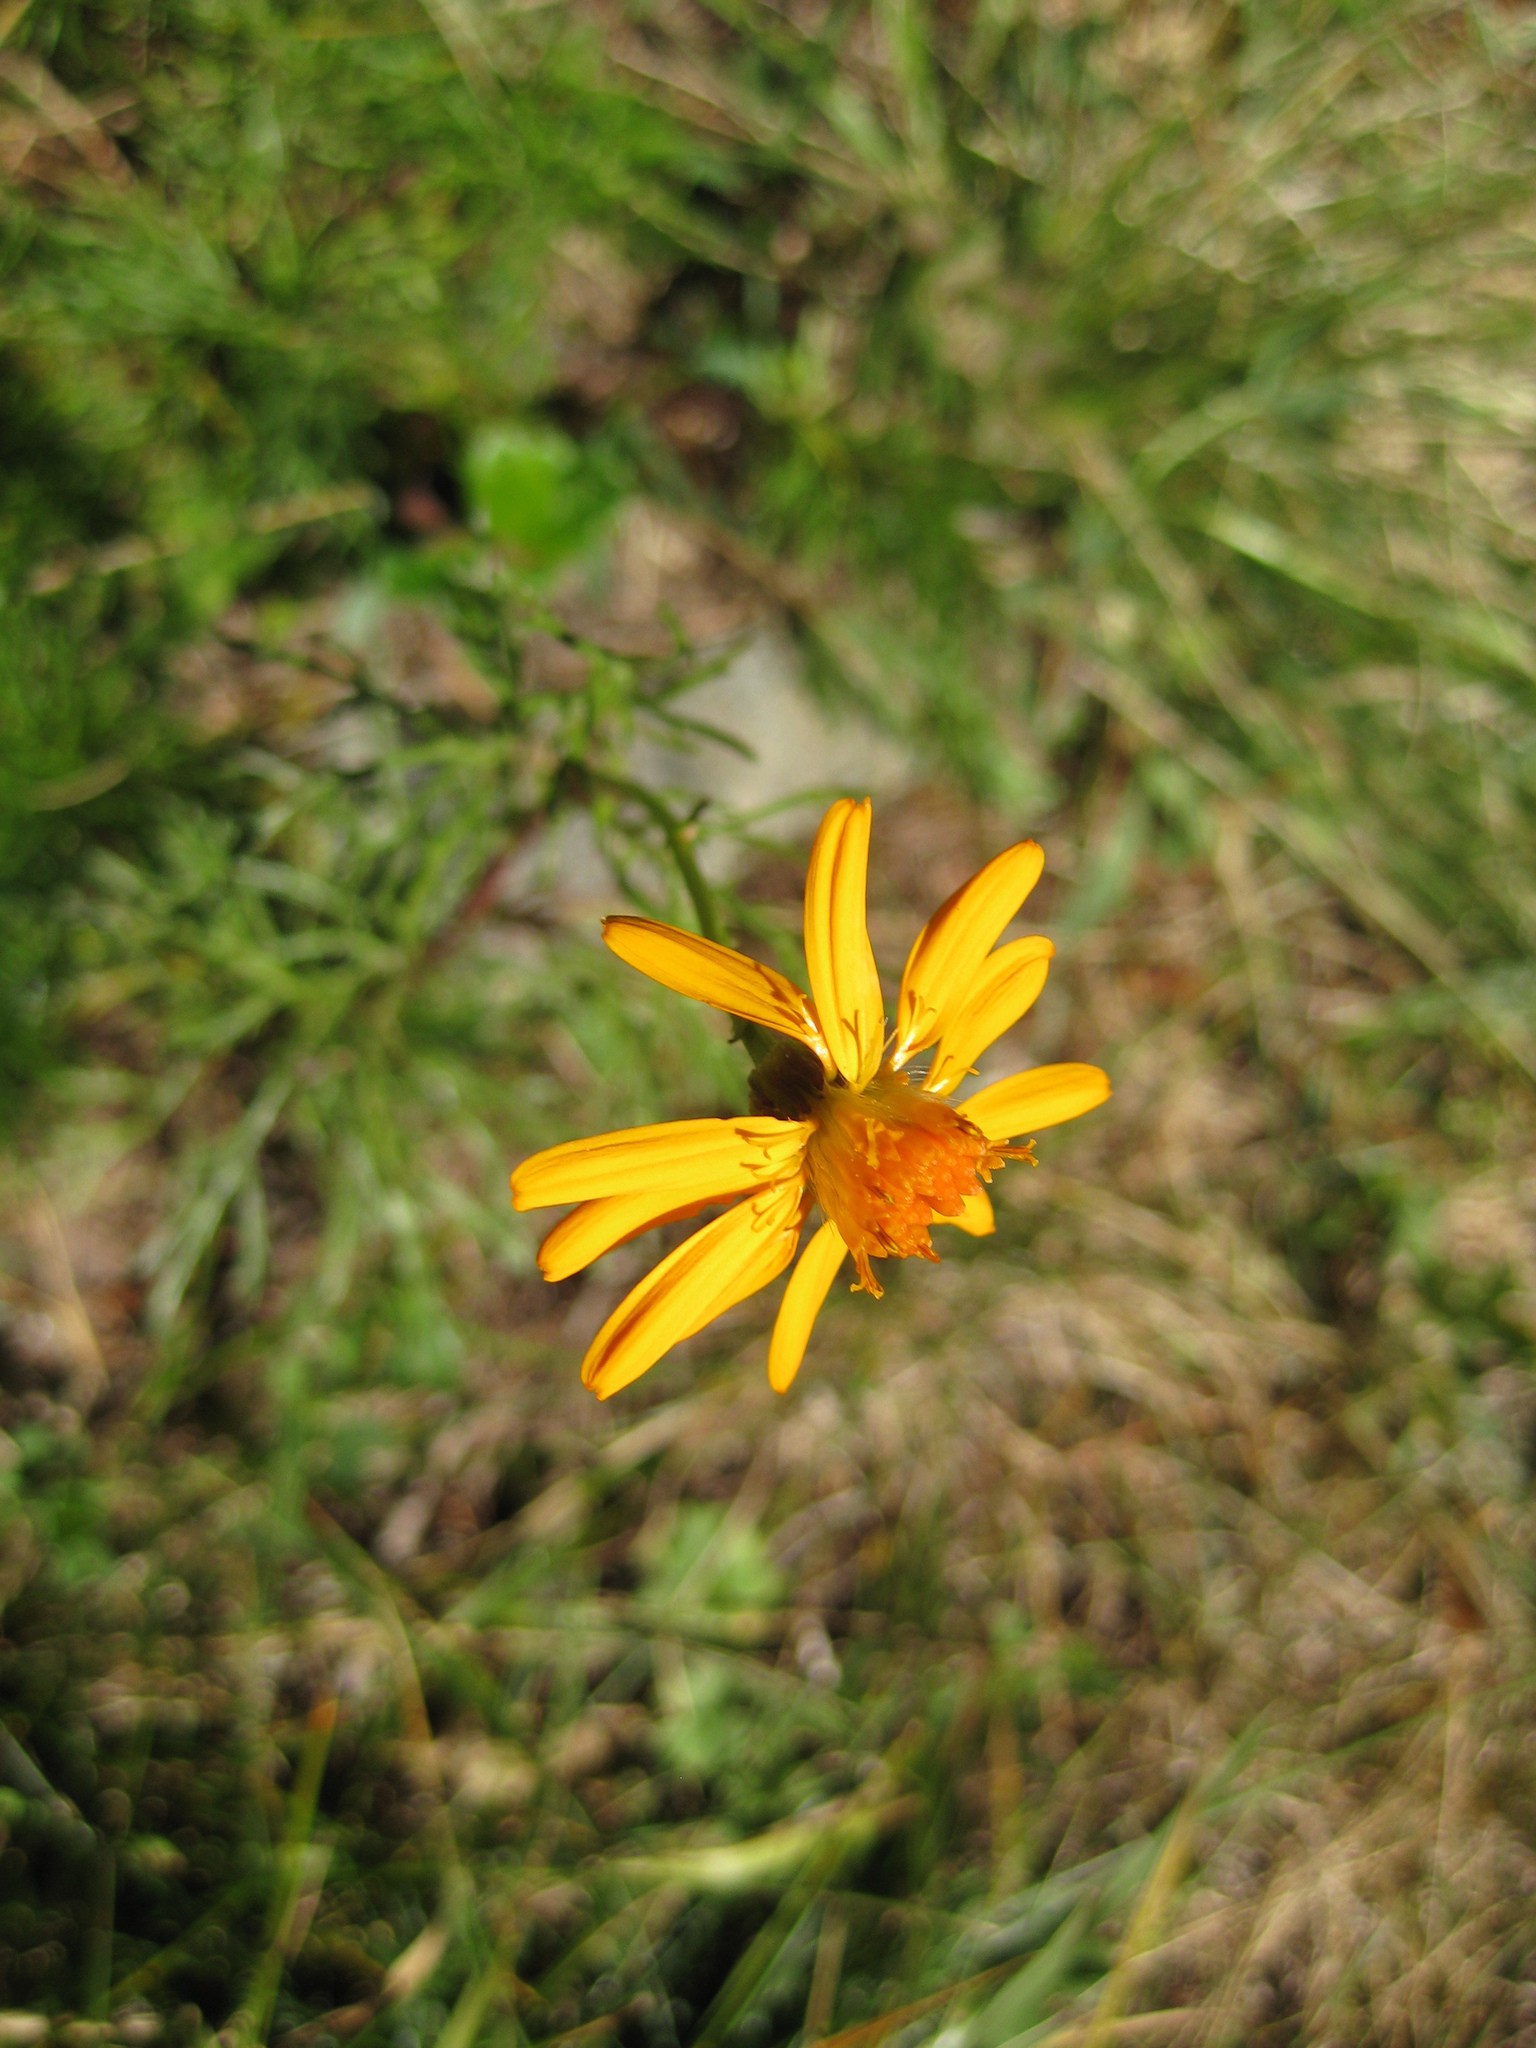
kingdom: Plantae
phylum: Tracheophyta
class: Magnoliopsida
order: Asterales
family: Asteraceae
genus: Jacobaea
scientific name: Jacobaea abrotanifolia
